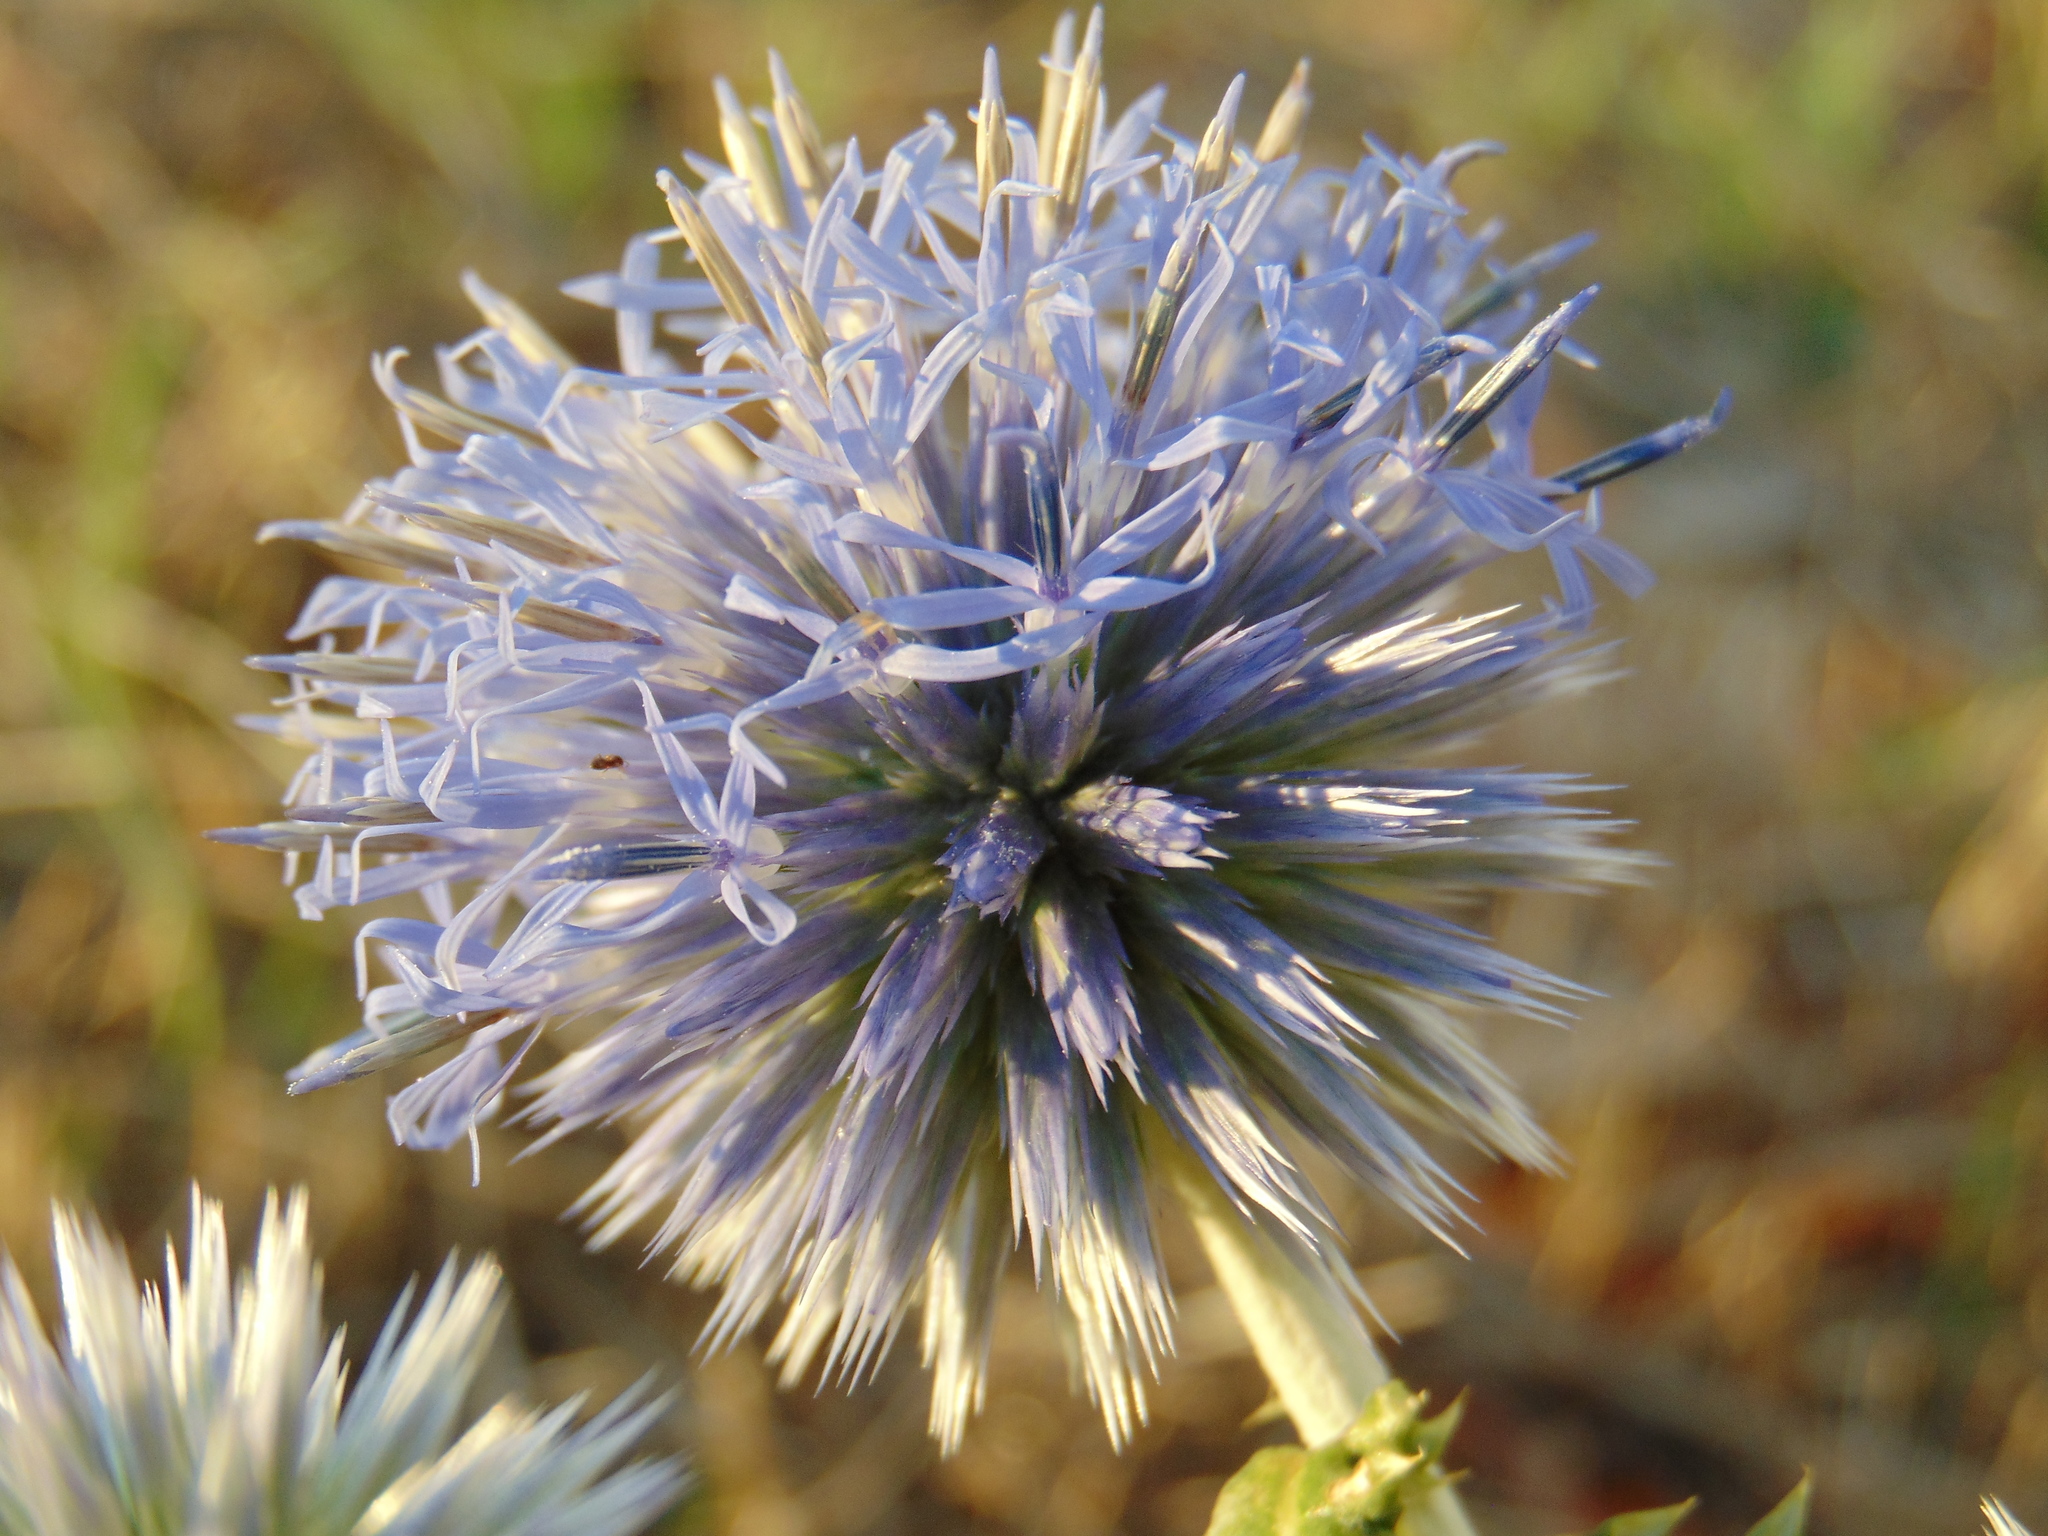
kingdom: Plantae
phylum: Tracheophyta
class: Magnoliopsida
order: Asterales
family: Asteraceae
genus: Echinops
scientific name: Echinops ritro
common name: Globe thistle
